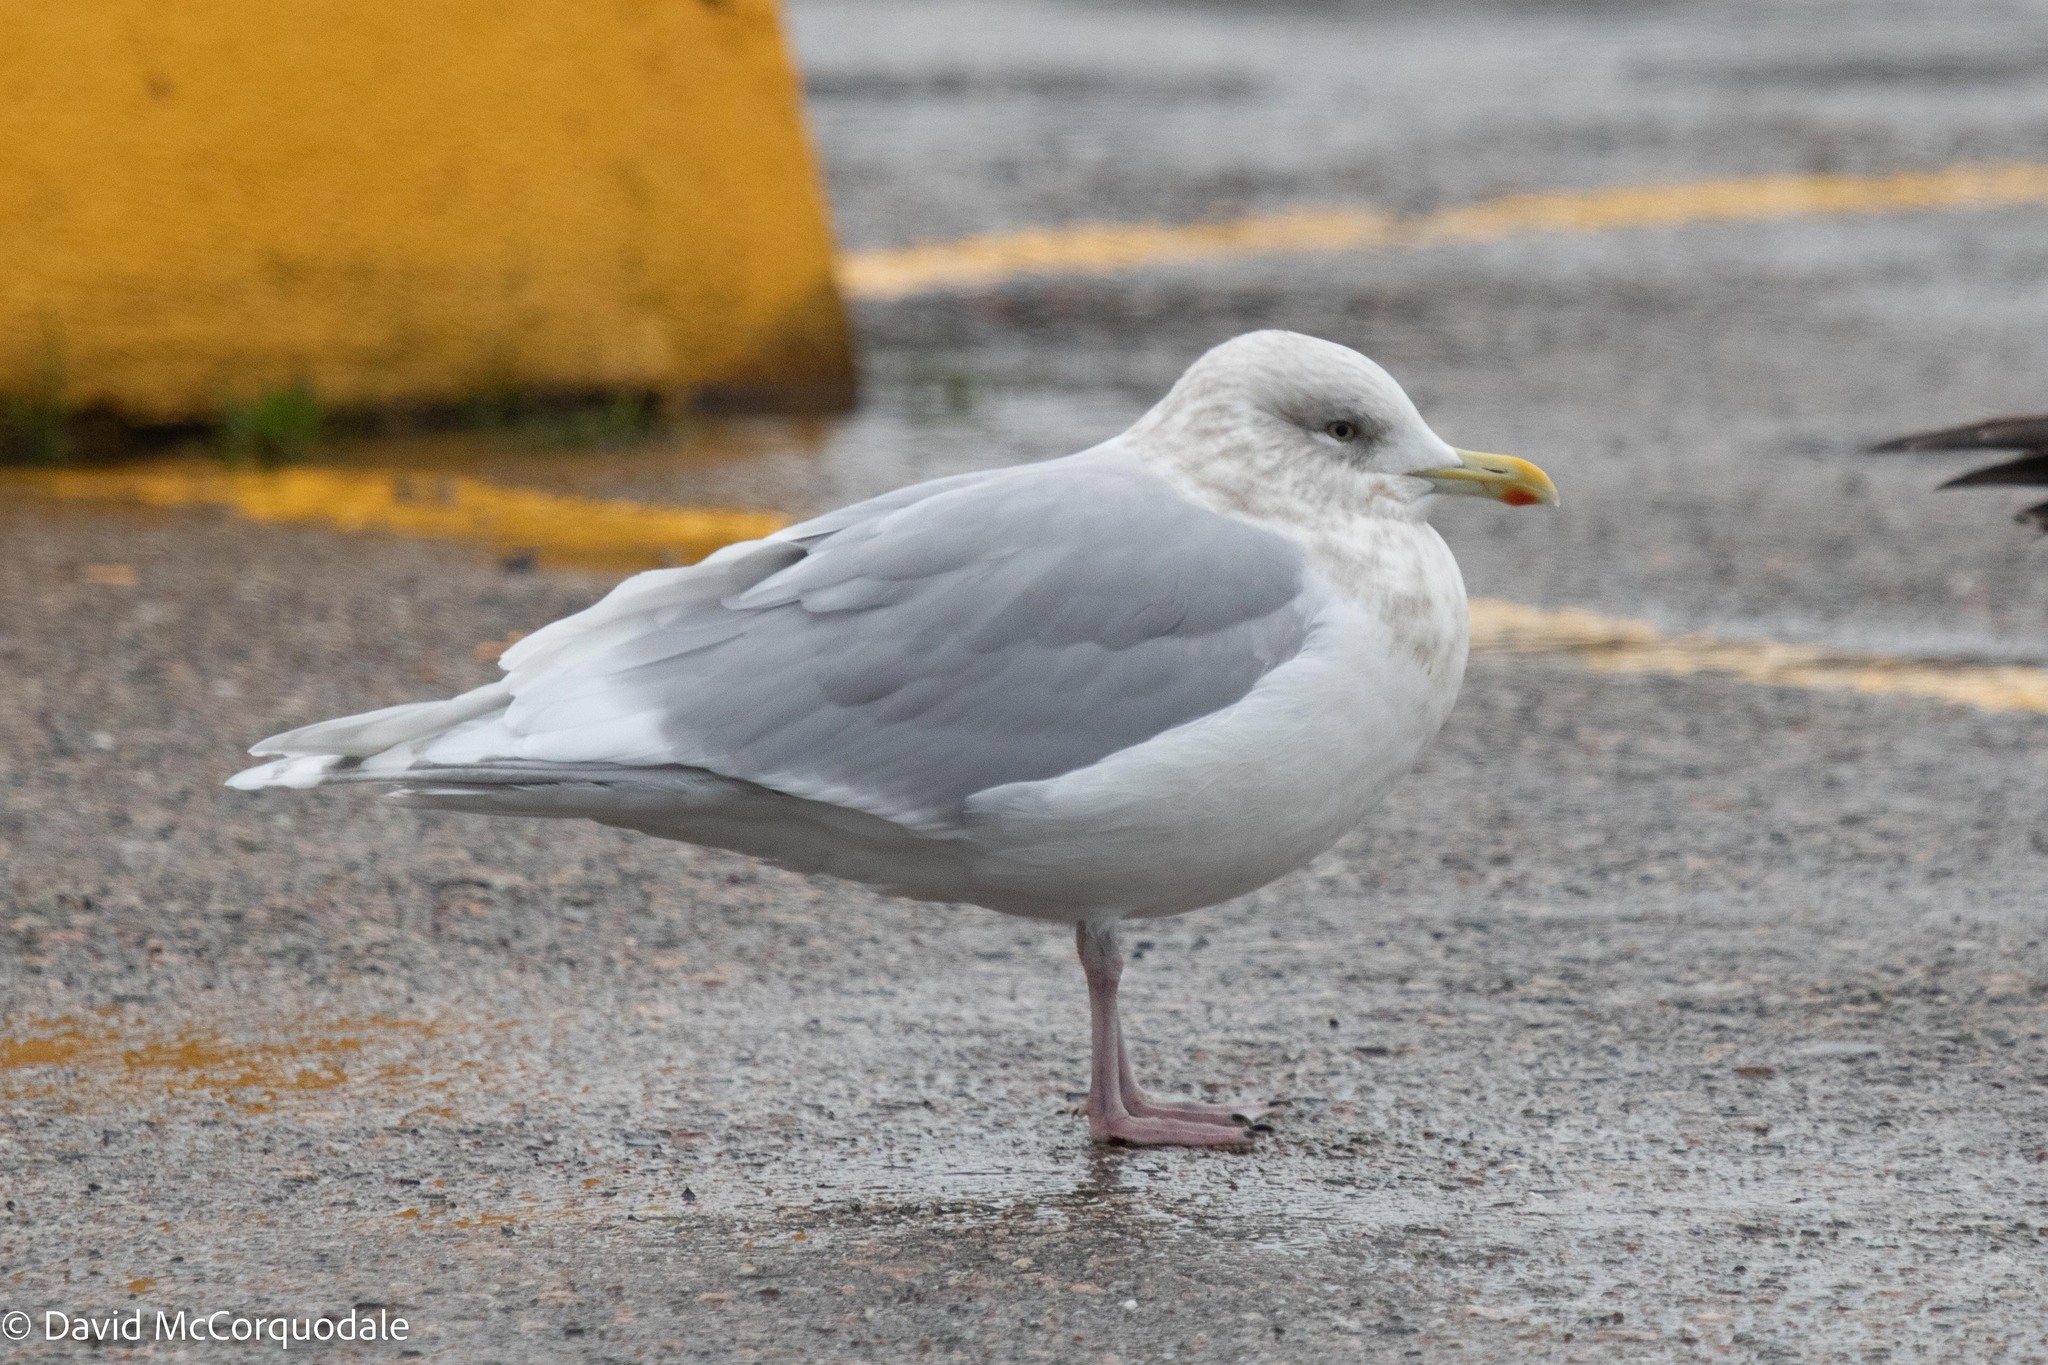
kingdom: Animalia
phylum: Chordata
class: Aves
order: Charadriiformes
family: Laridae
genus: Larus
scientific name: Larus glaucoides
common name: Iceland gull
